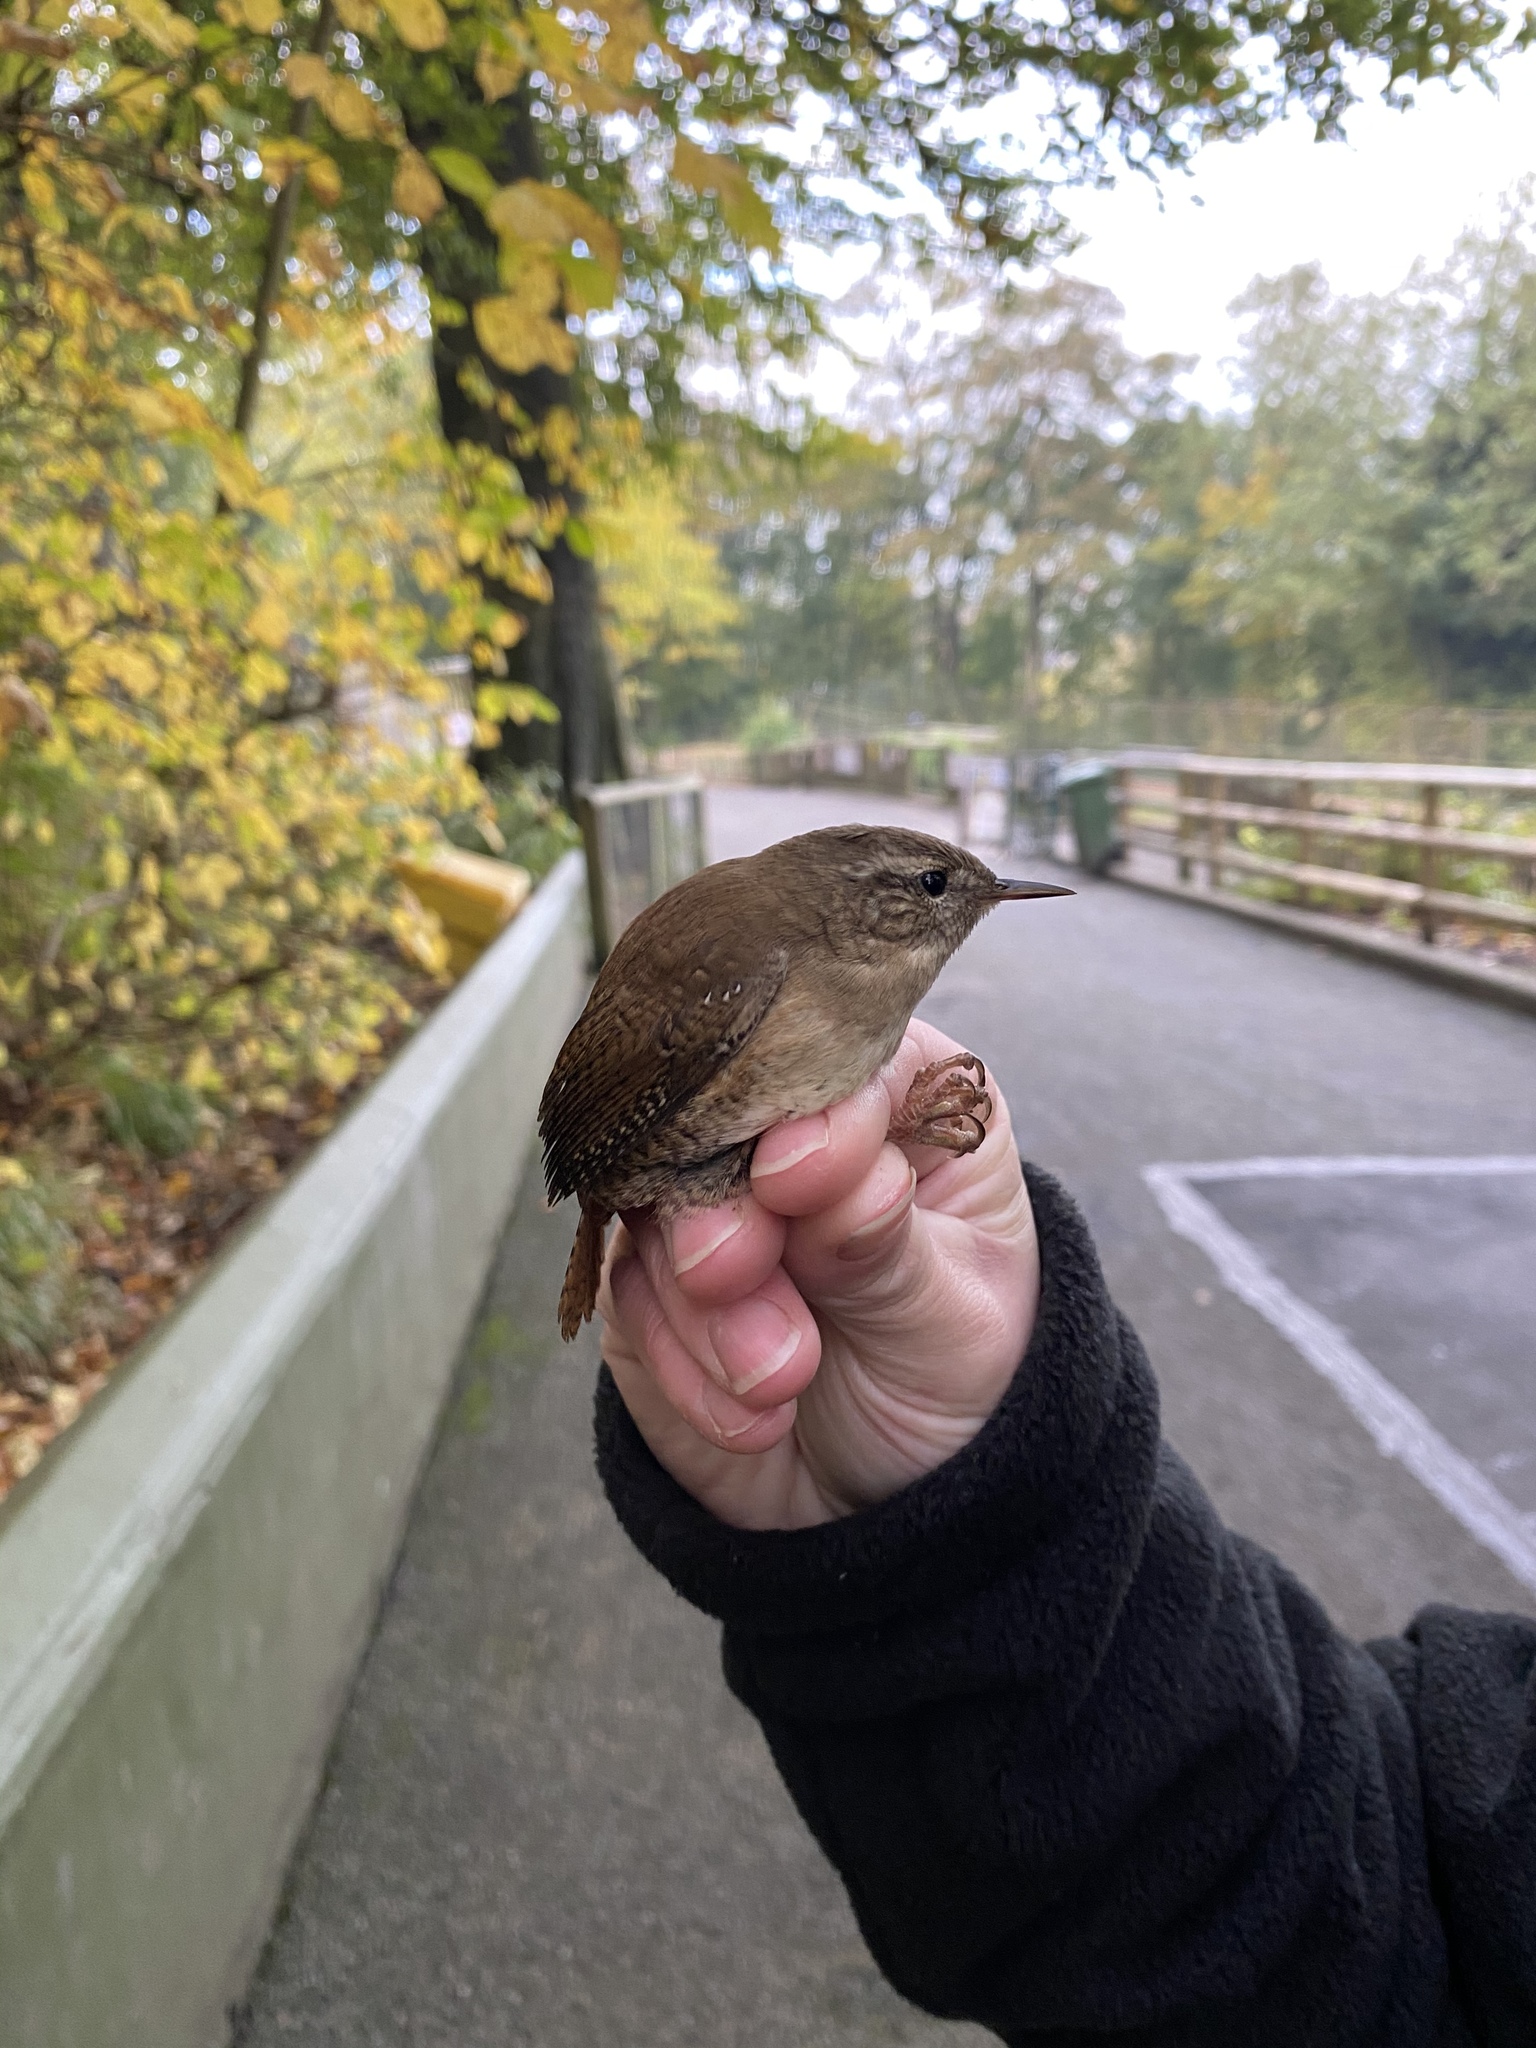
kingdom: Animalia
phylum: Chordata
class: Aves
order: Passeriformes
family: Troglodytidae
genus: Troglodytes
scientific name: Troglodytes troglodytes
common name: Eurasian wren
